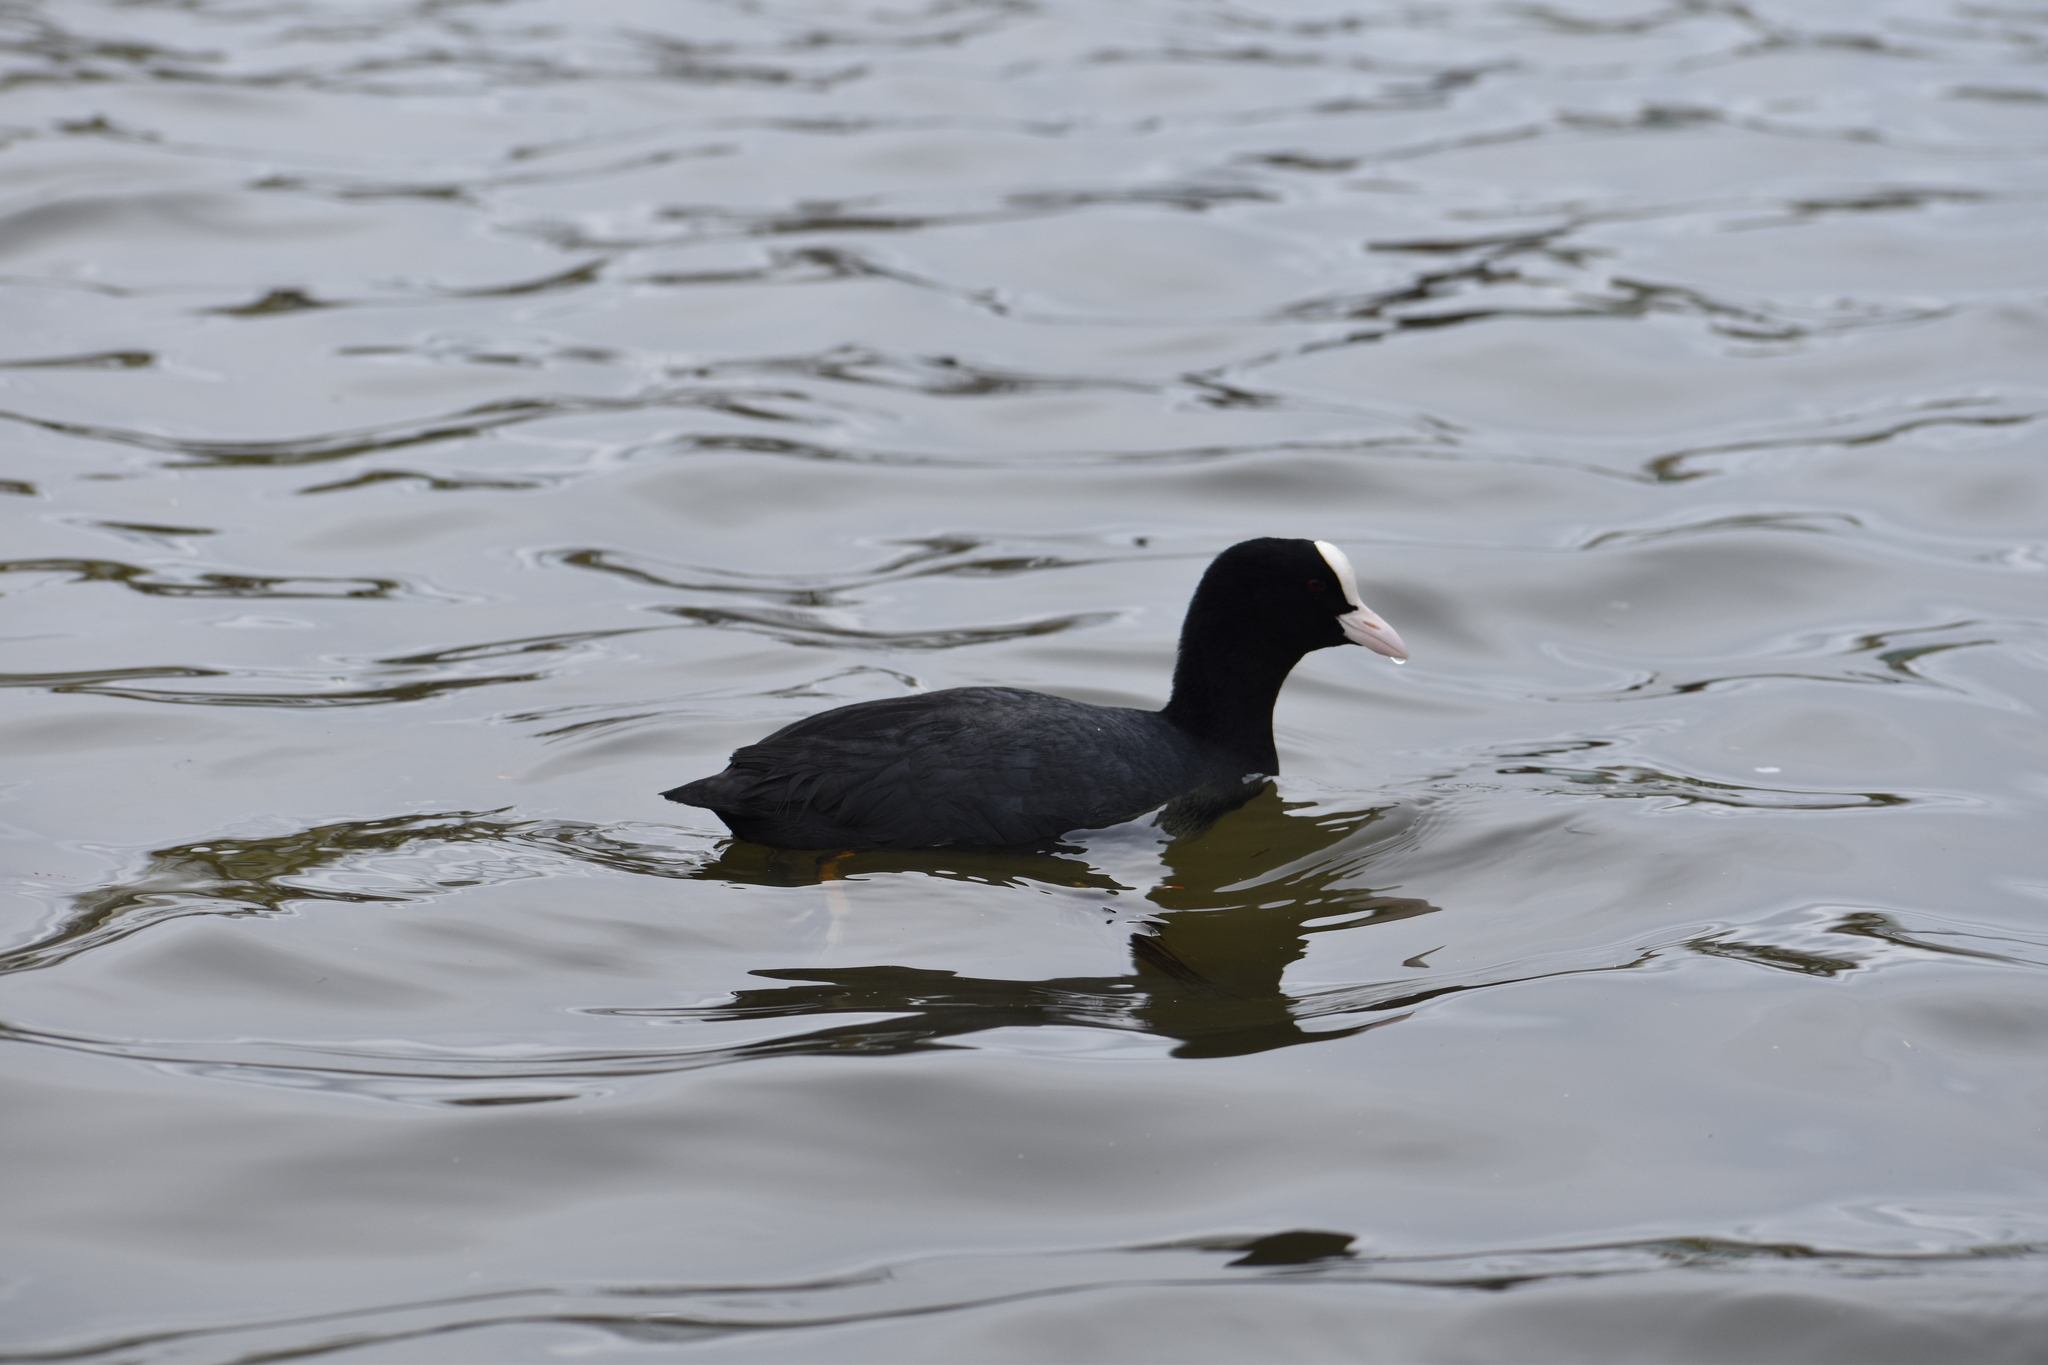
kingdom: Animalia
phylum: Chordata
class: Aves
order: Gruiformes
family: Rallidae
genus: Fulica
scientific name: Fulica atra
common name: Eurasian coot
